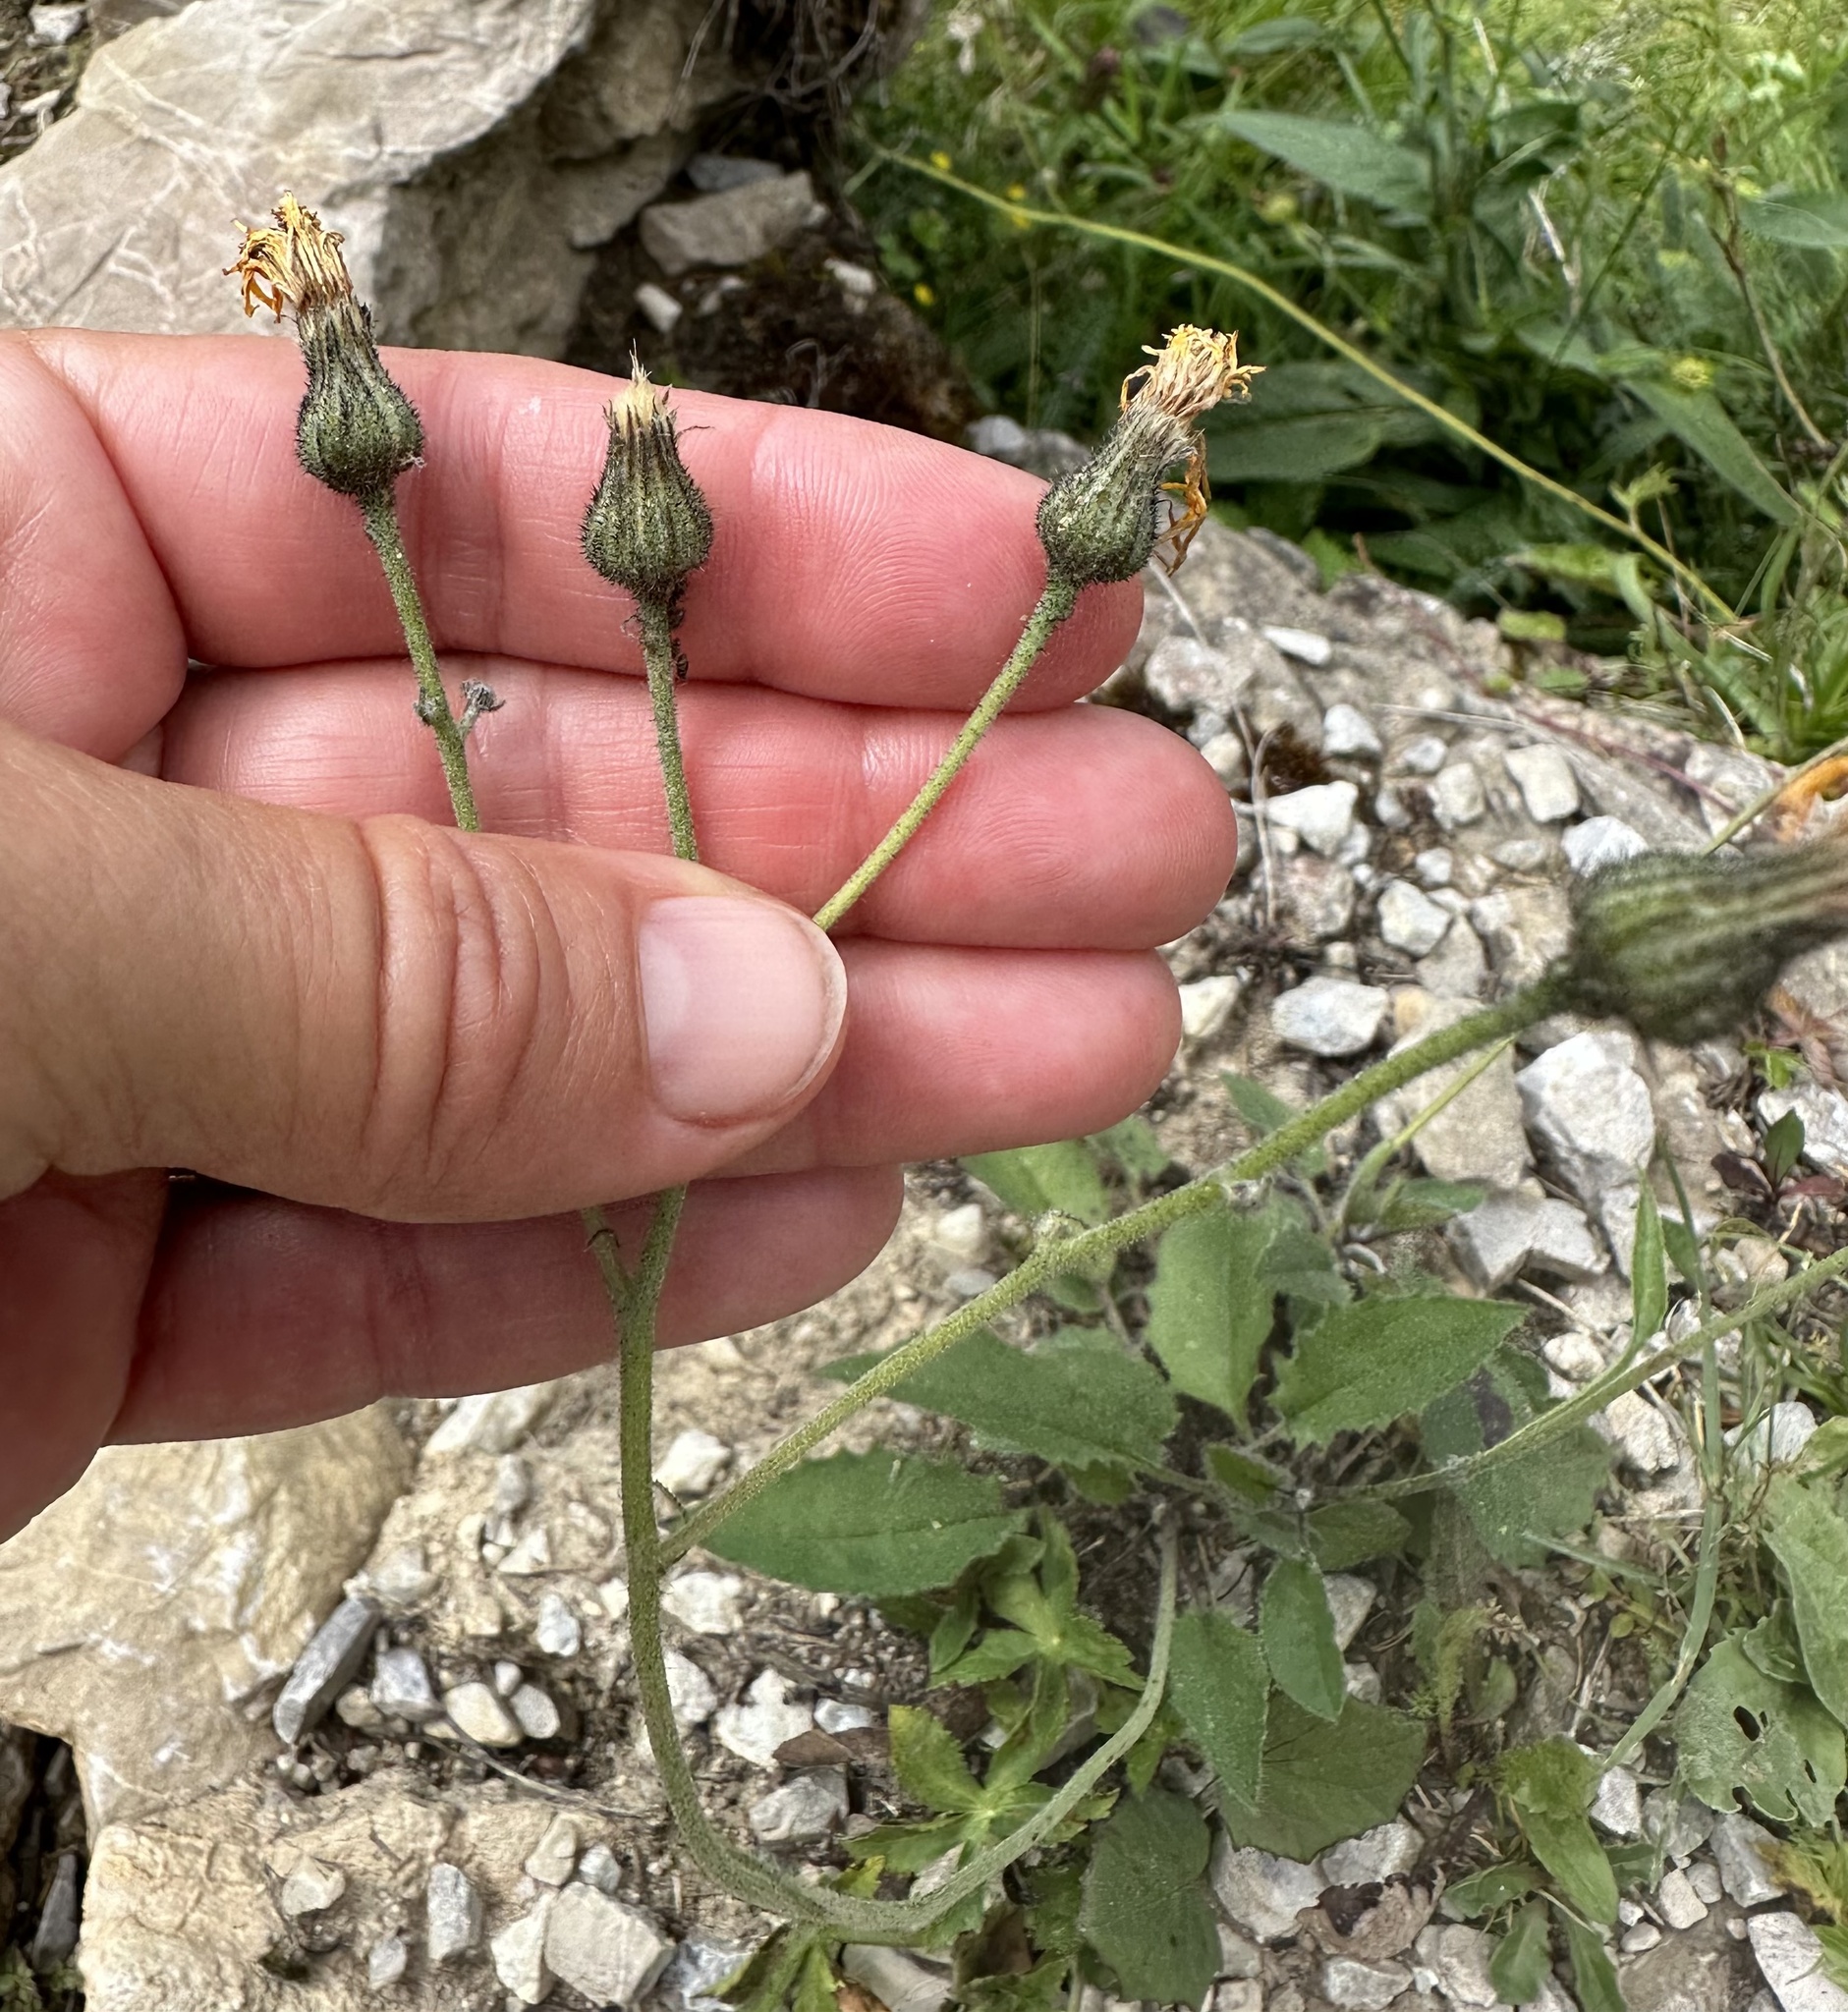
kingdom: Plantae
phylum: Tracheophyta
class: Magnoliopsida
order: Asterales
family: Asteraceae
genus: Hieracium
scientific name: Hieracium lachenalii
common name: Common hawkweed
